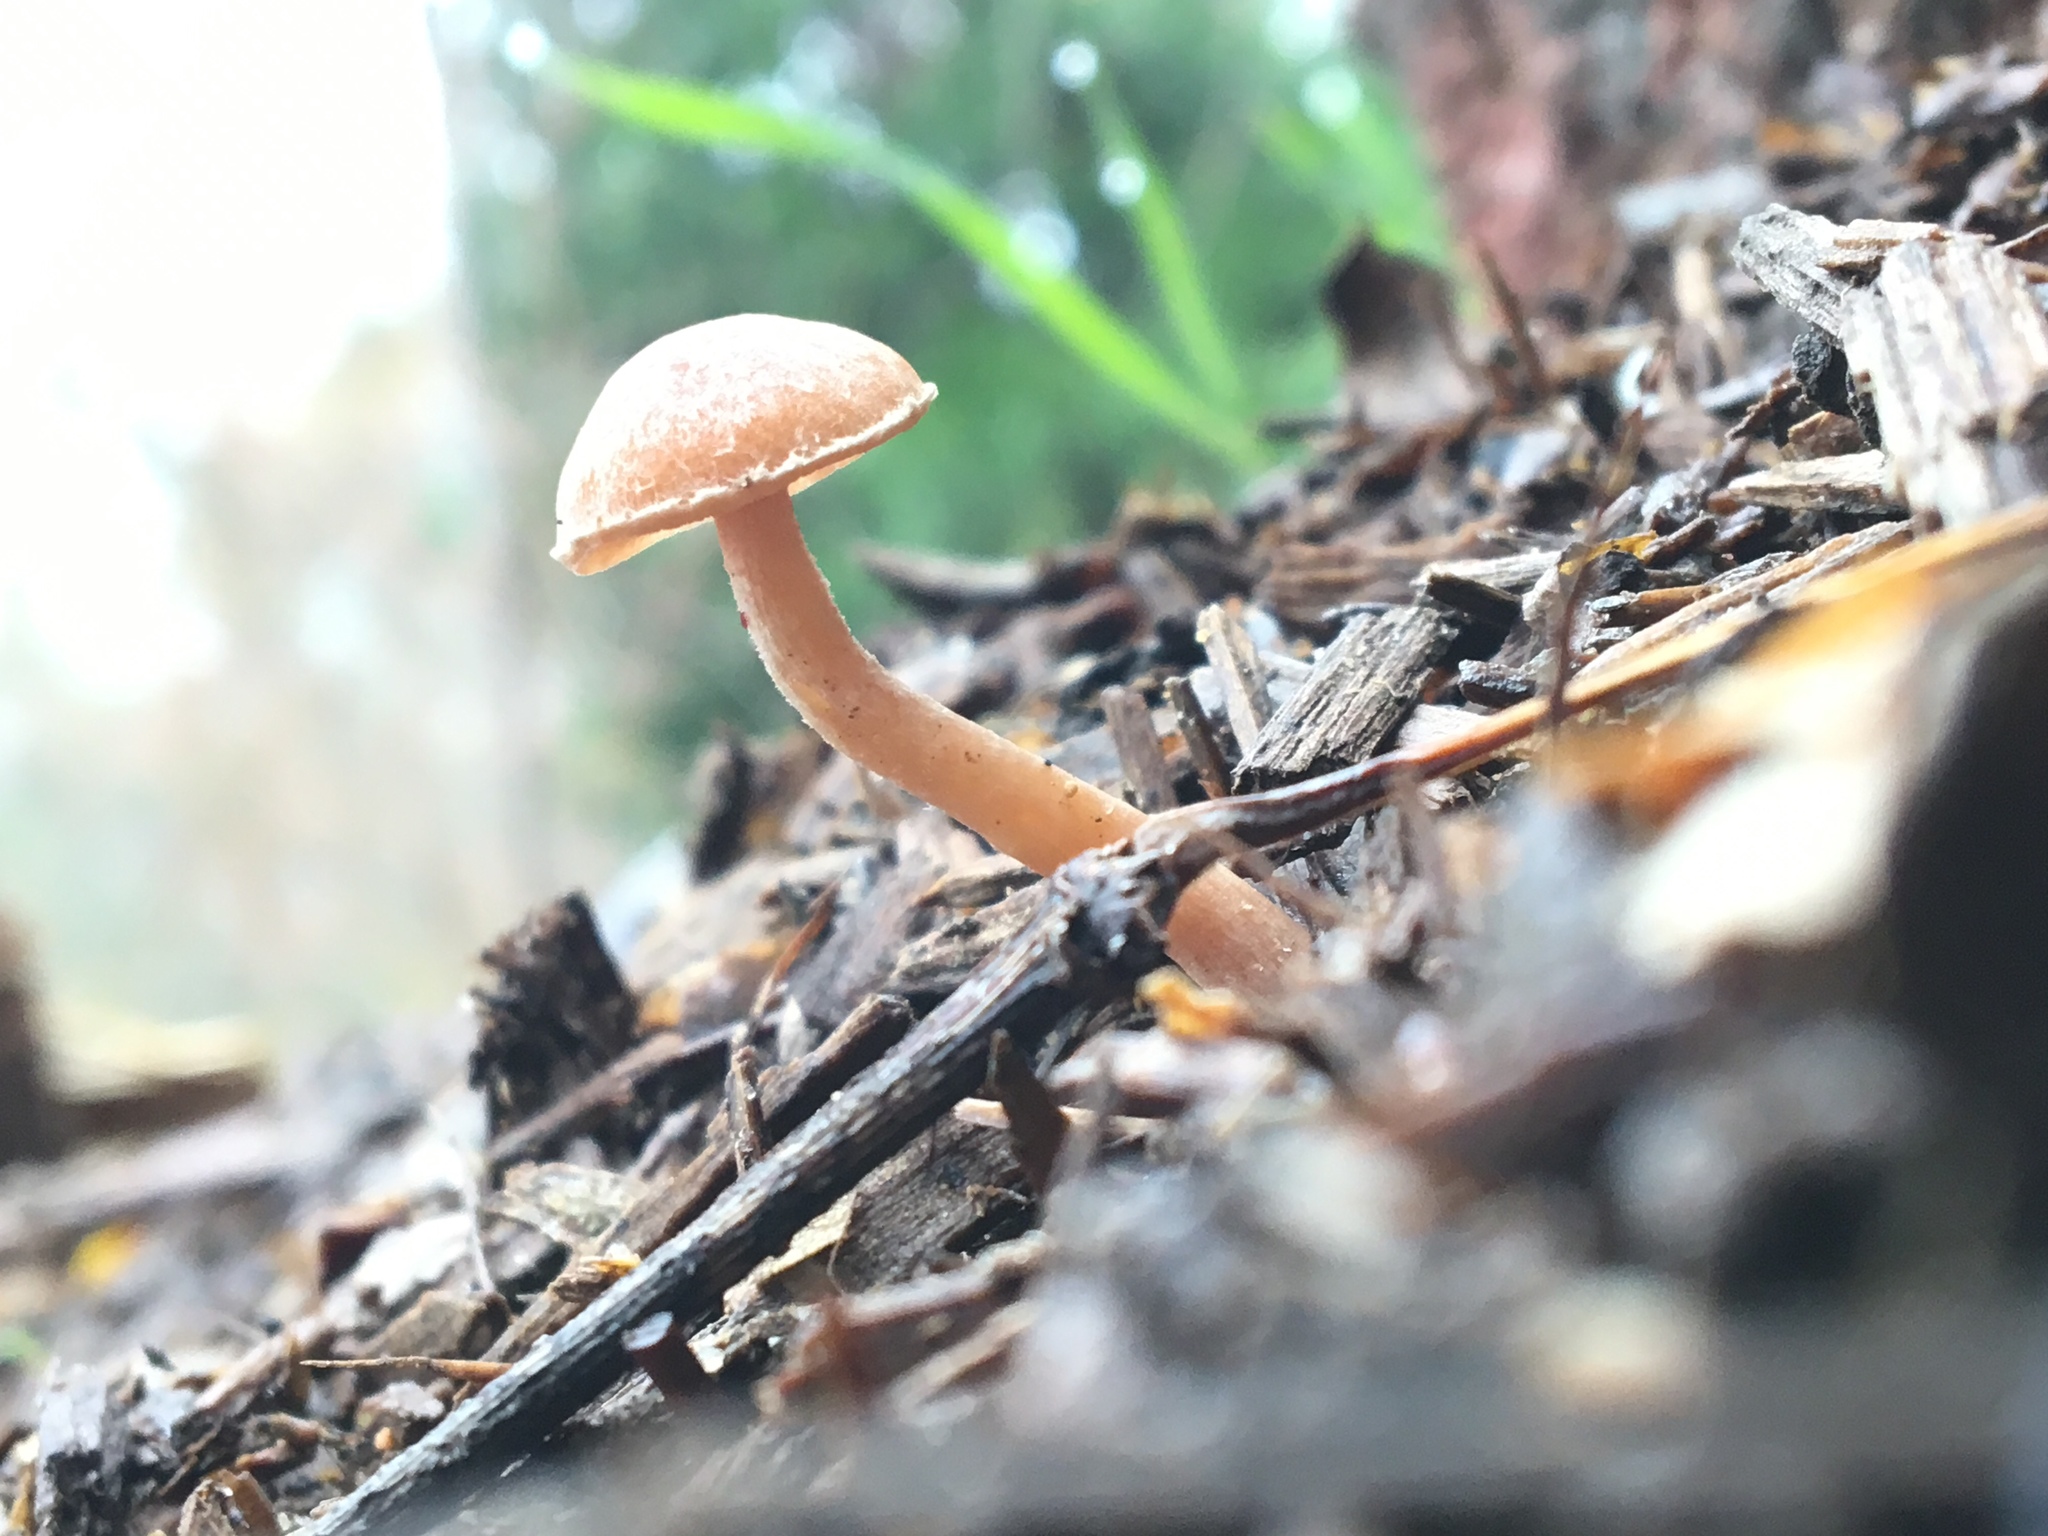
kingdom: Fungi
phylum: Basidiomycota
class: Agaricomycetes
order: Agaricales
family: Tubariaceae
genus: Tubaria
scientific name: Tubaria furfuracea
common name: Scurfy twiglet
